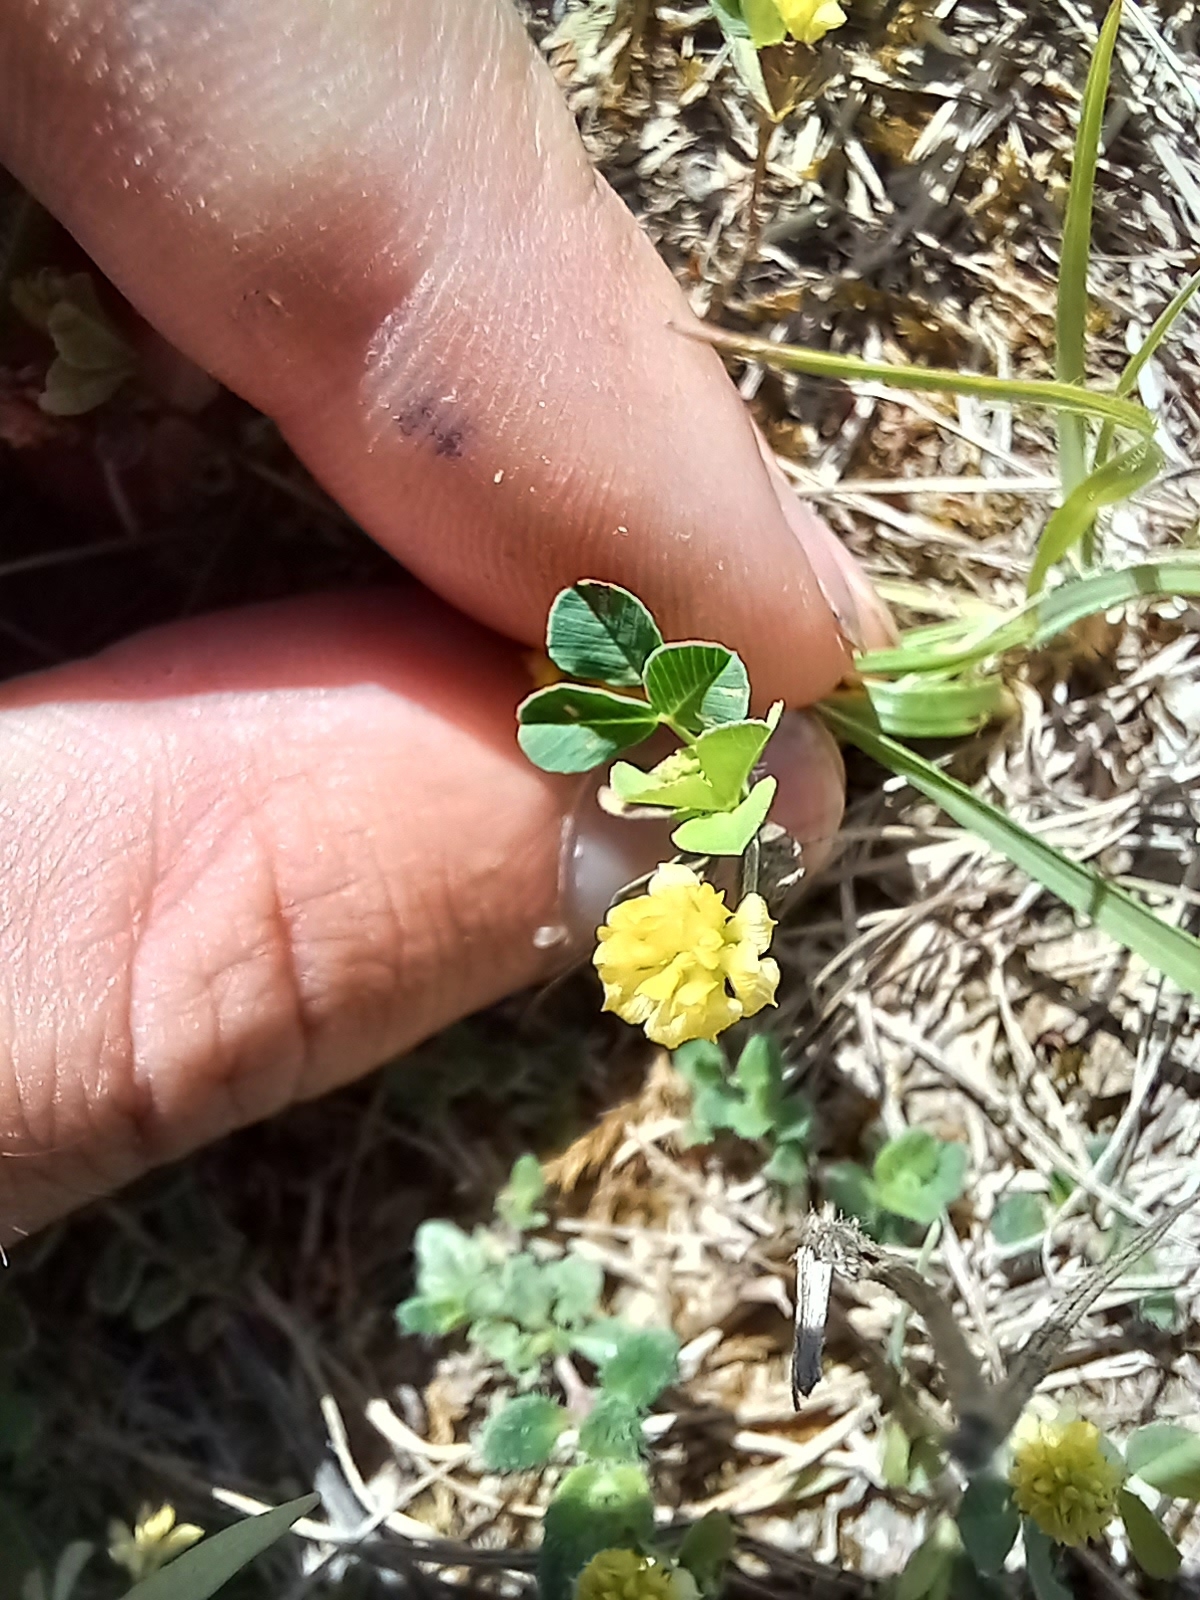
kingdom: Plantae
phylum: Tracheophyta
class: Magnoliopsida
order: Fabales
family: Fabaceae
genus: Trifolium
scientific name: Trifolium campestre
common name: Field clover
